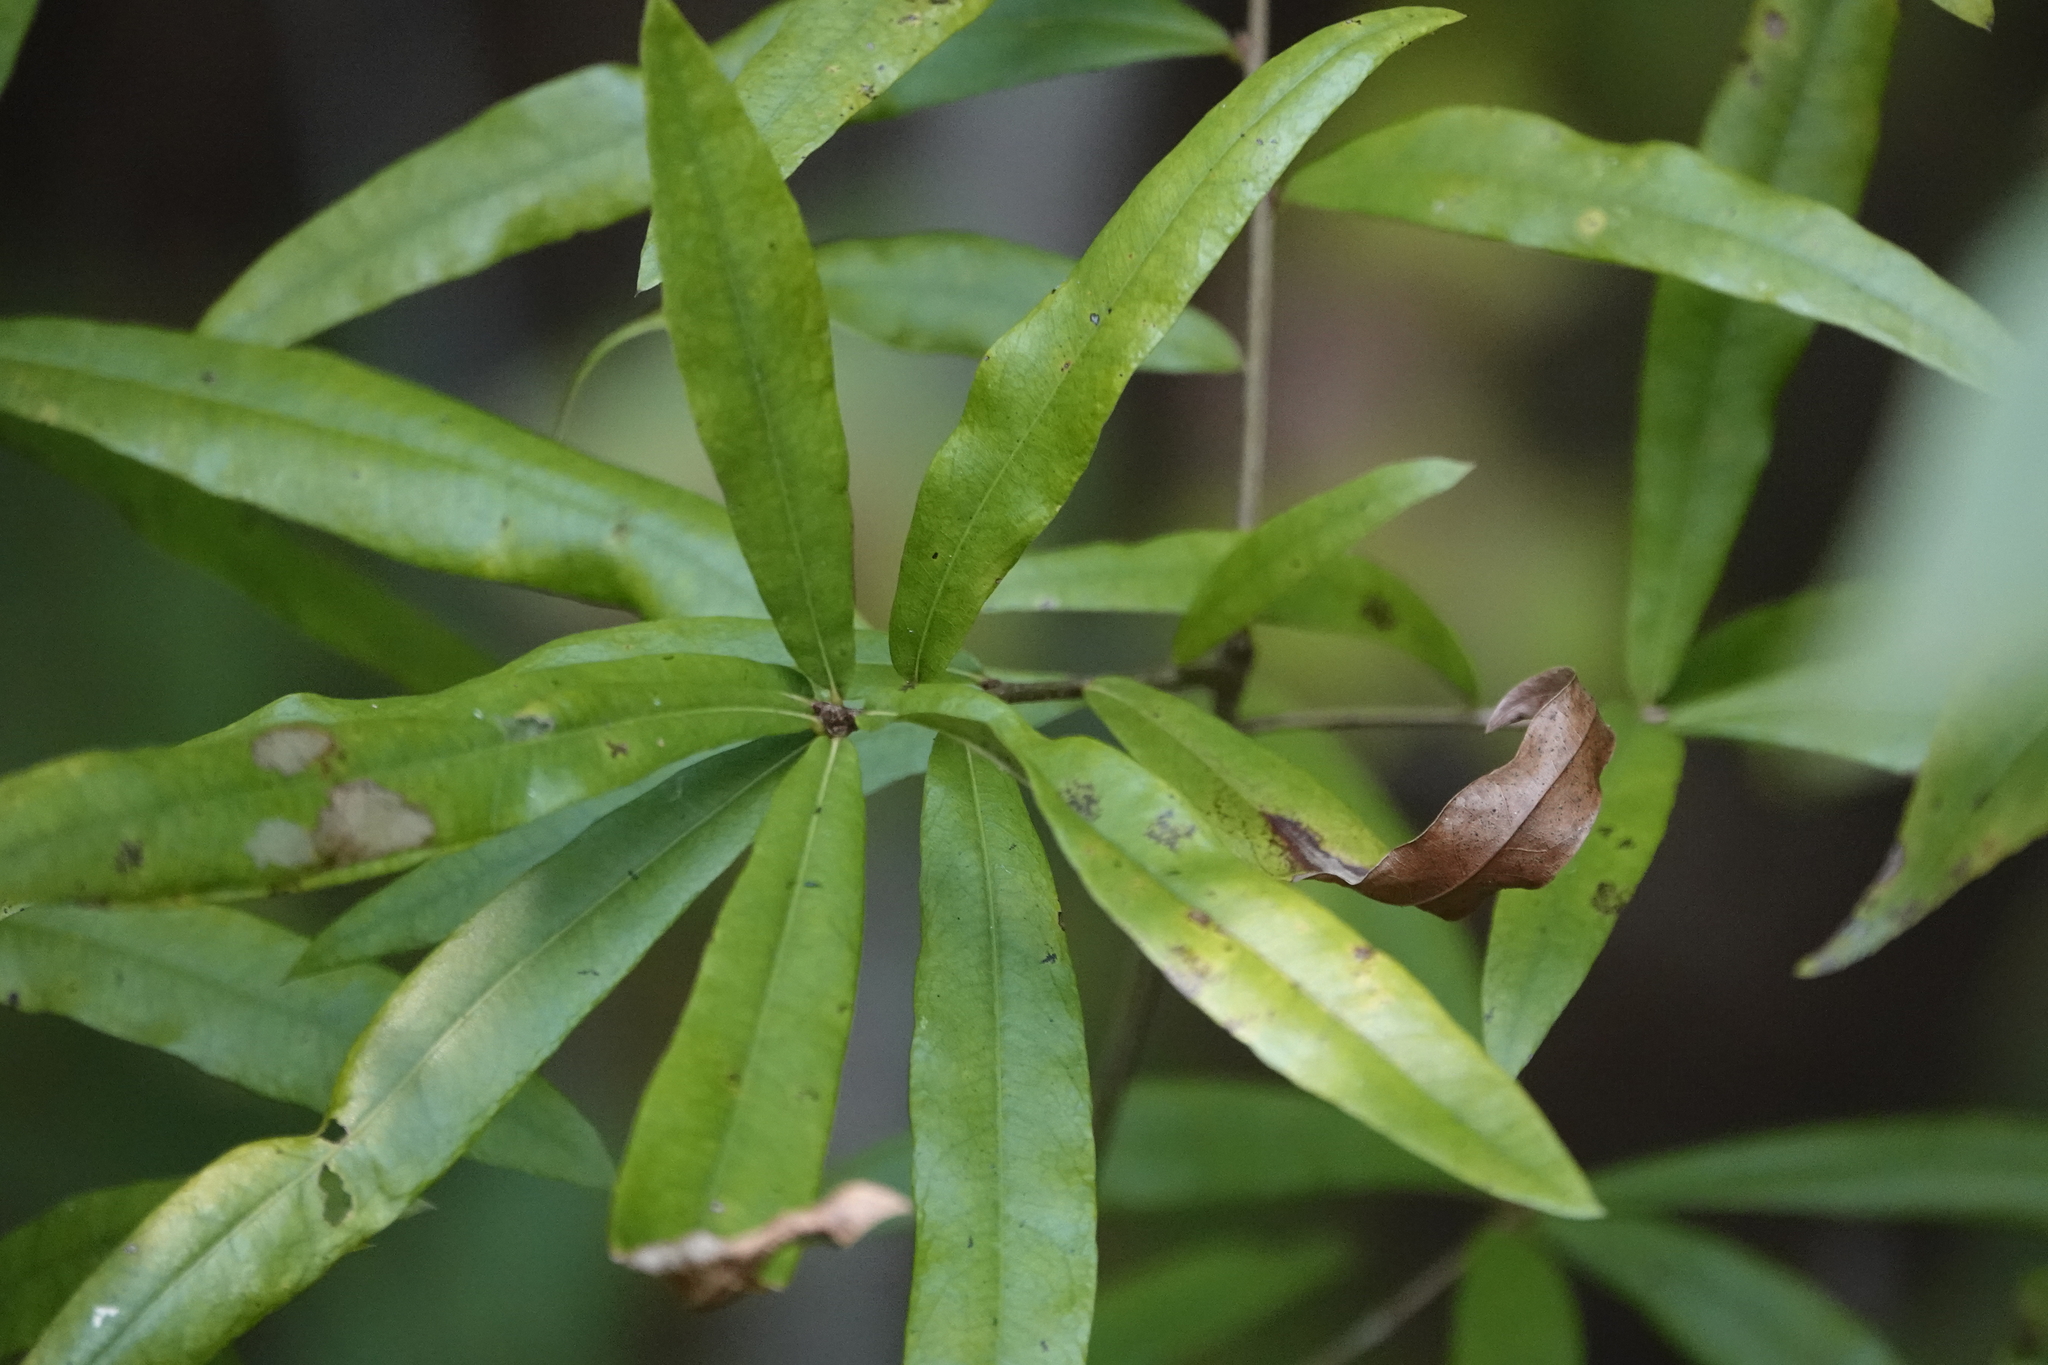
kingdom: Plantae
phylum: Tracheophyta
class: Magnoliopsida
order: Fagales
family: Fagaceae
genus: Quercus
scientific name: Quercus phellos
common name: Willow oak
